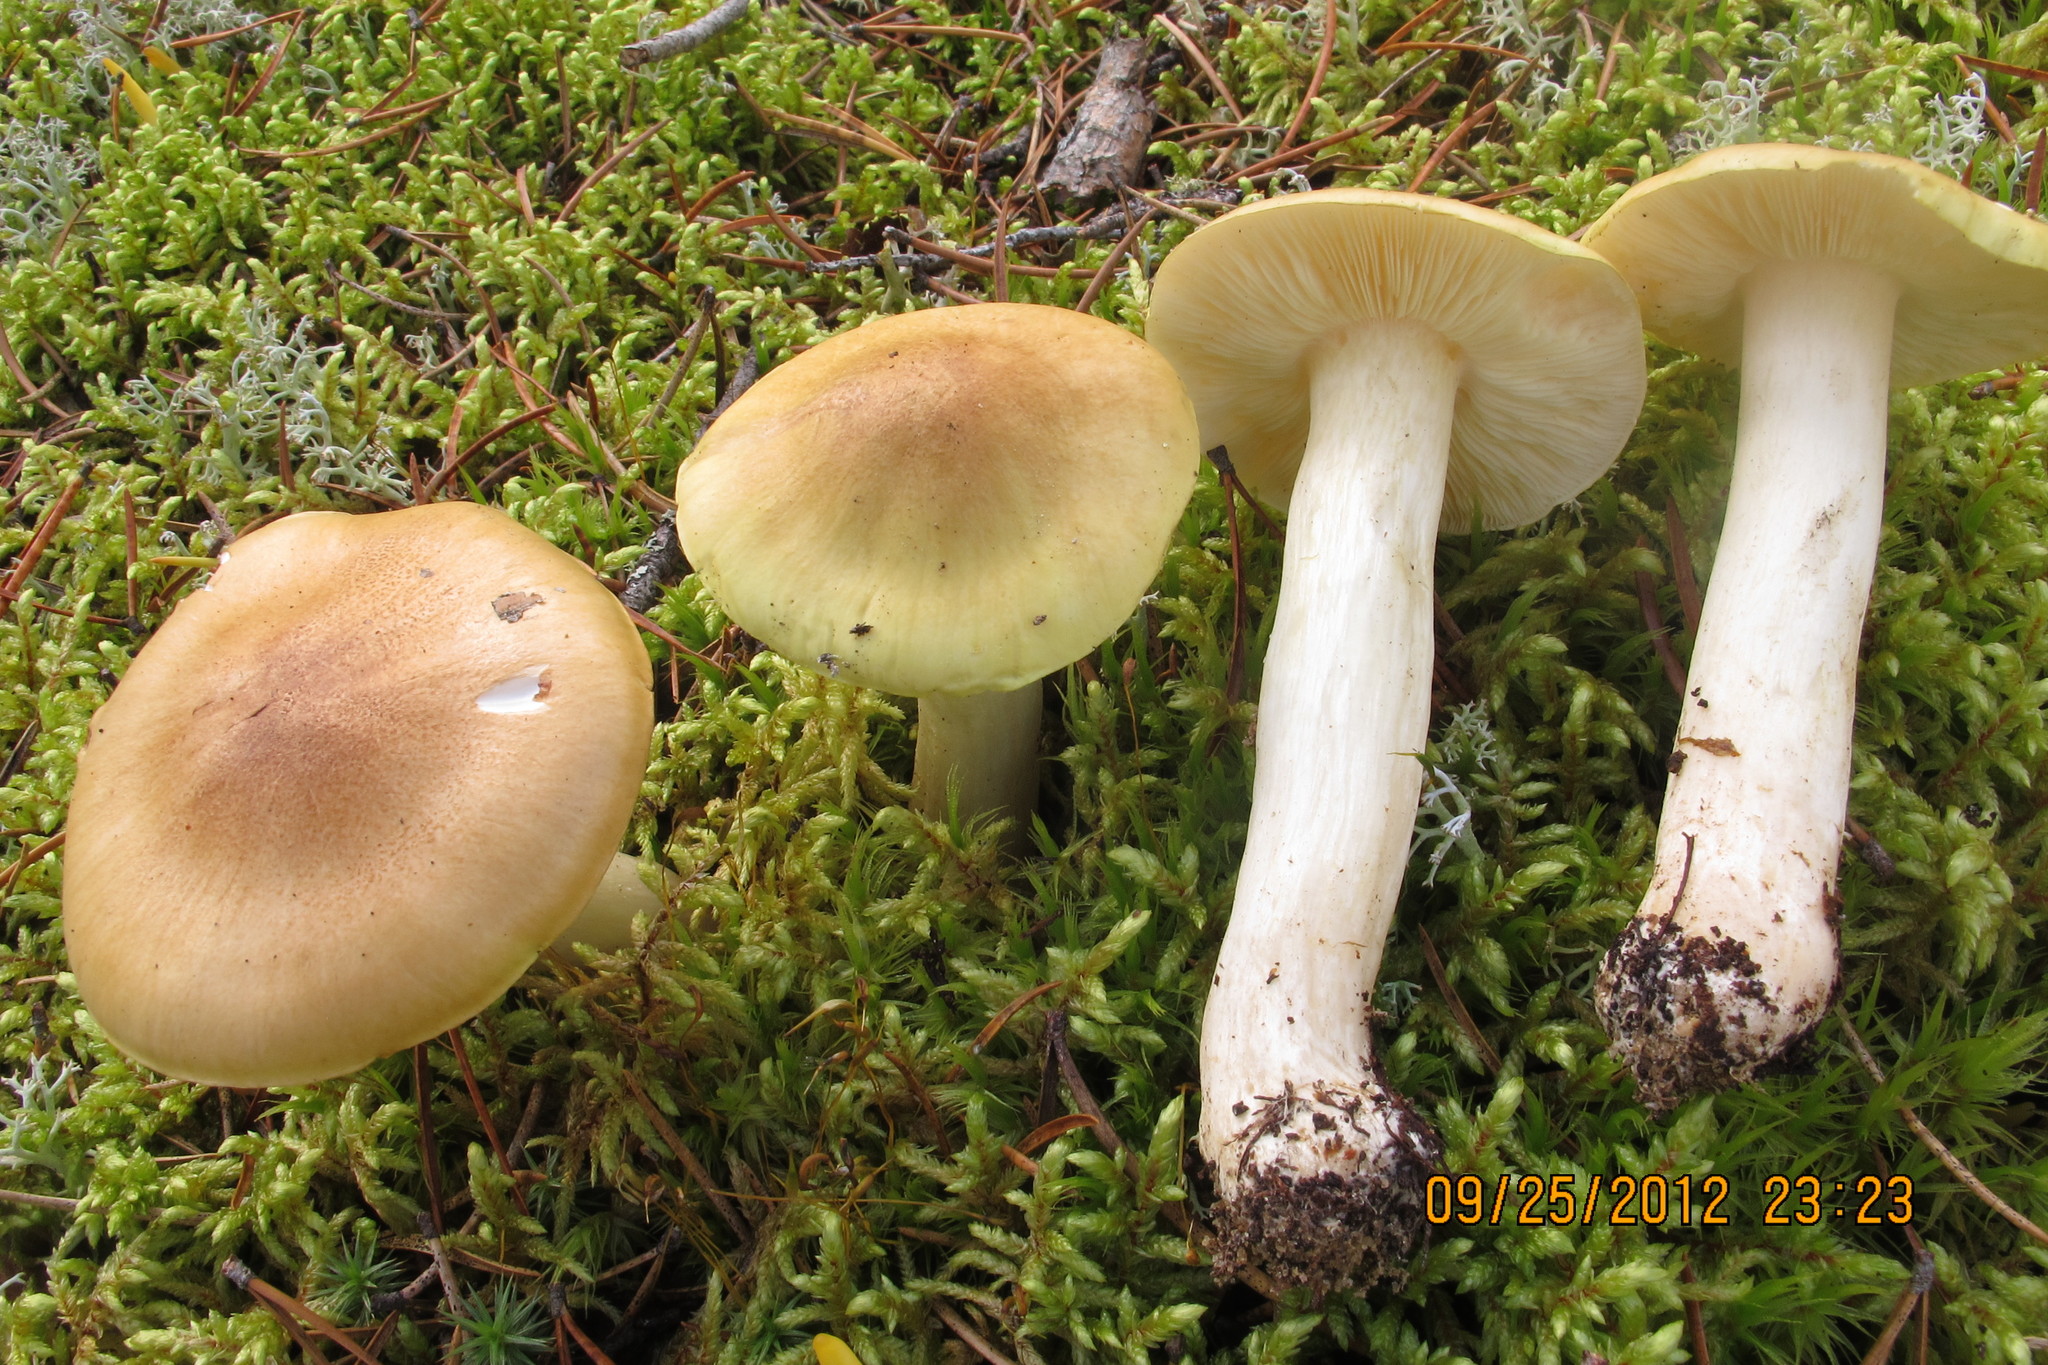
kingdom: Fungi
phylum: Basidiomycota
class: Agaricomycetes
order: Agaricales
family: Tricholomataceae
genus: Tricholoma
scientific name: Tricholoma intermedium
